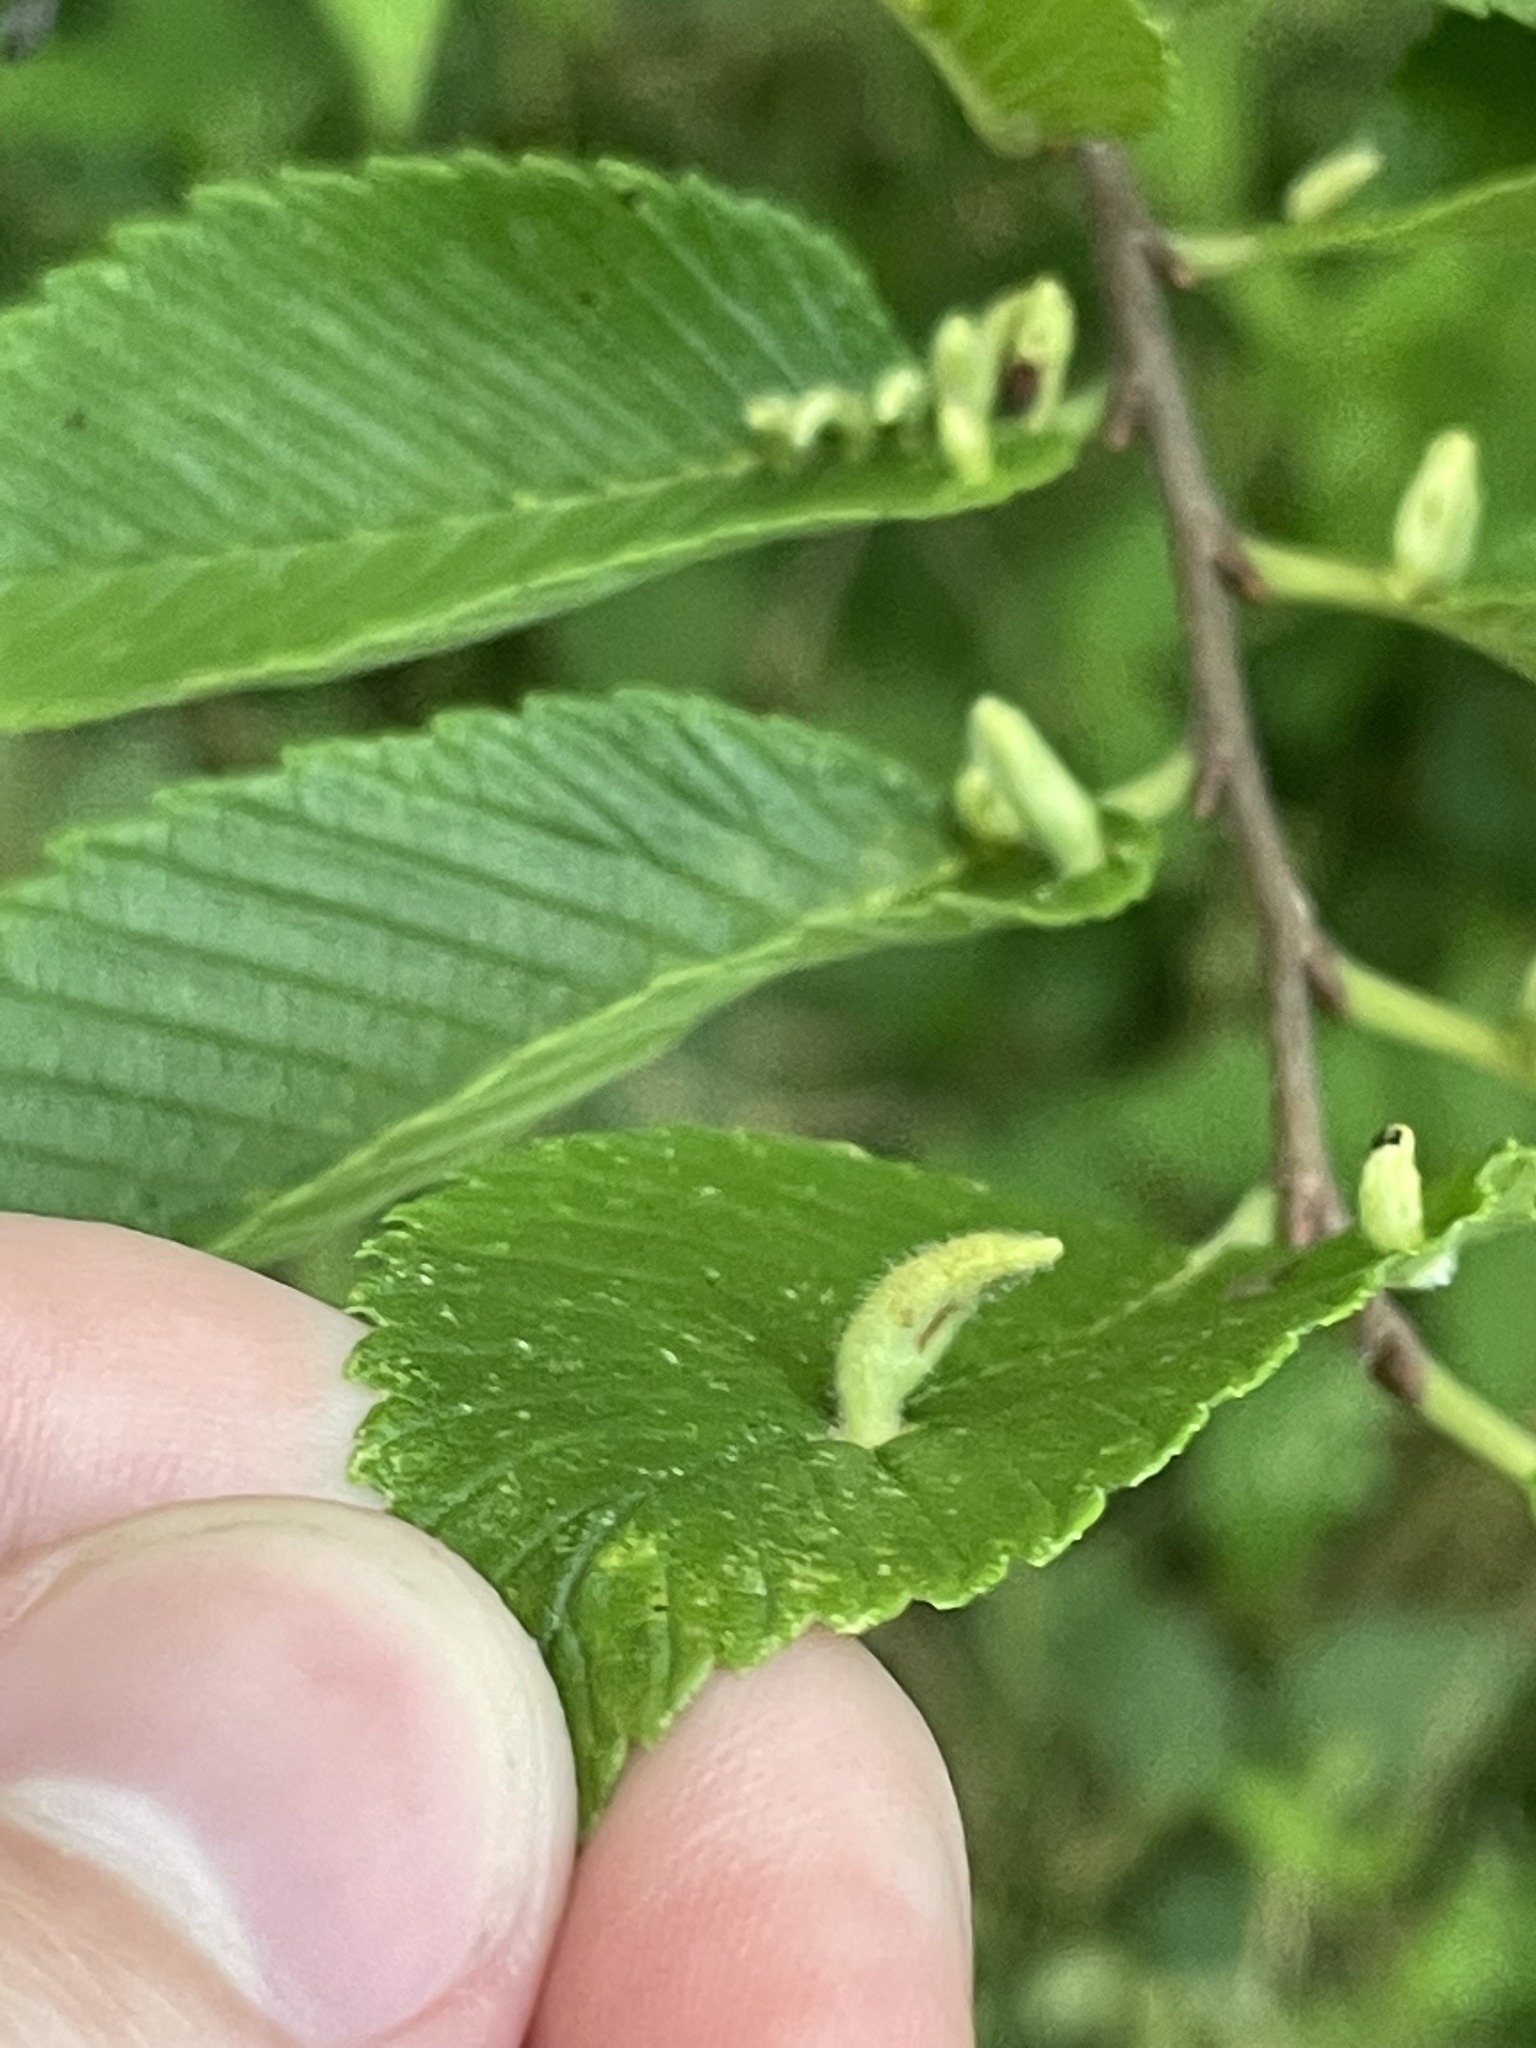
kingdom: Animalia
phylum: Arthropoda
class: Arachnida
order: Trombidiformes
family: Eriophyidae
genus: Aceria
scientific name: Aceria
